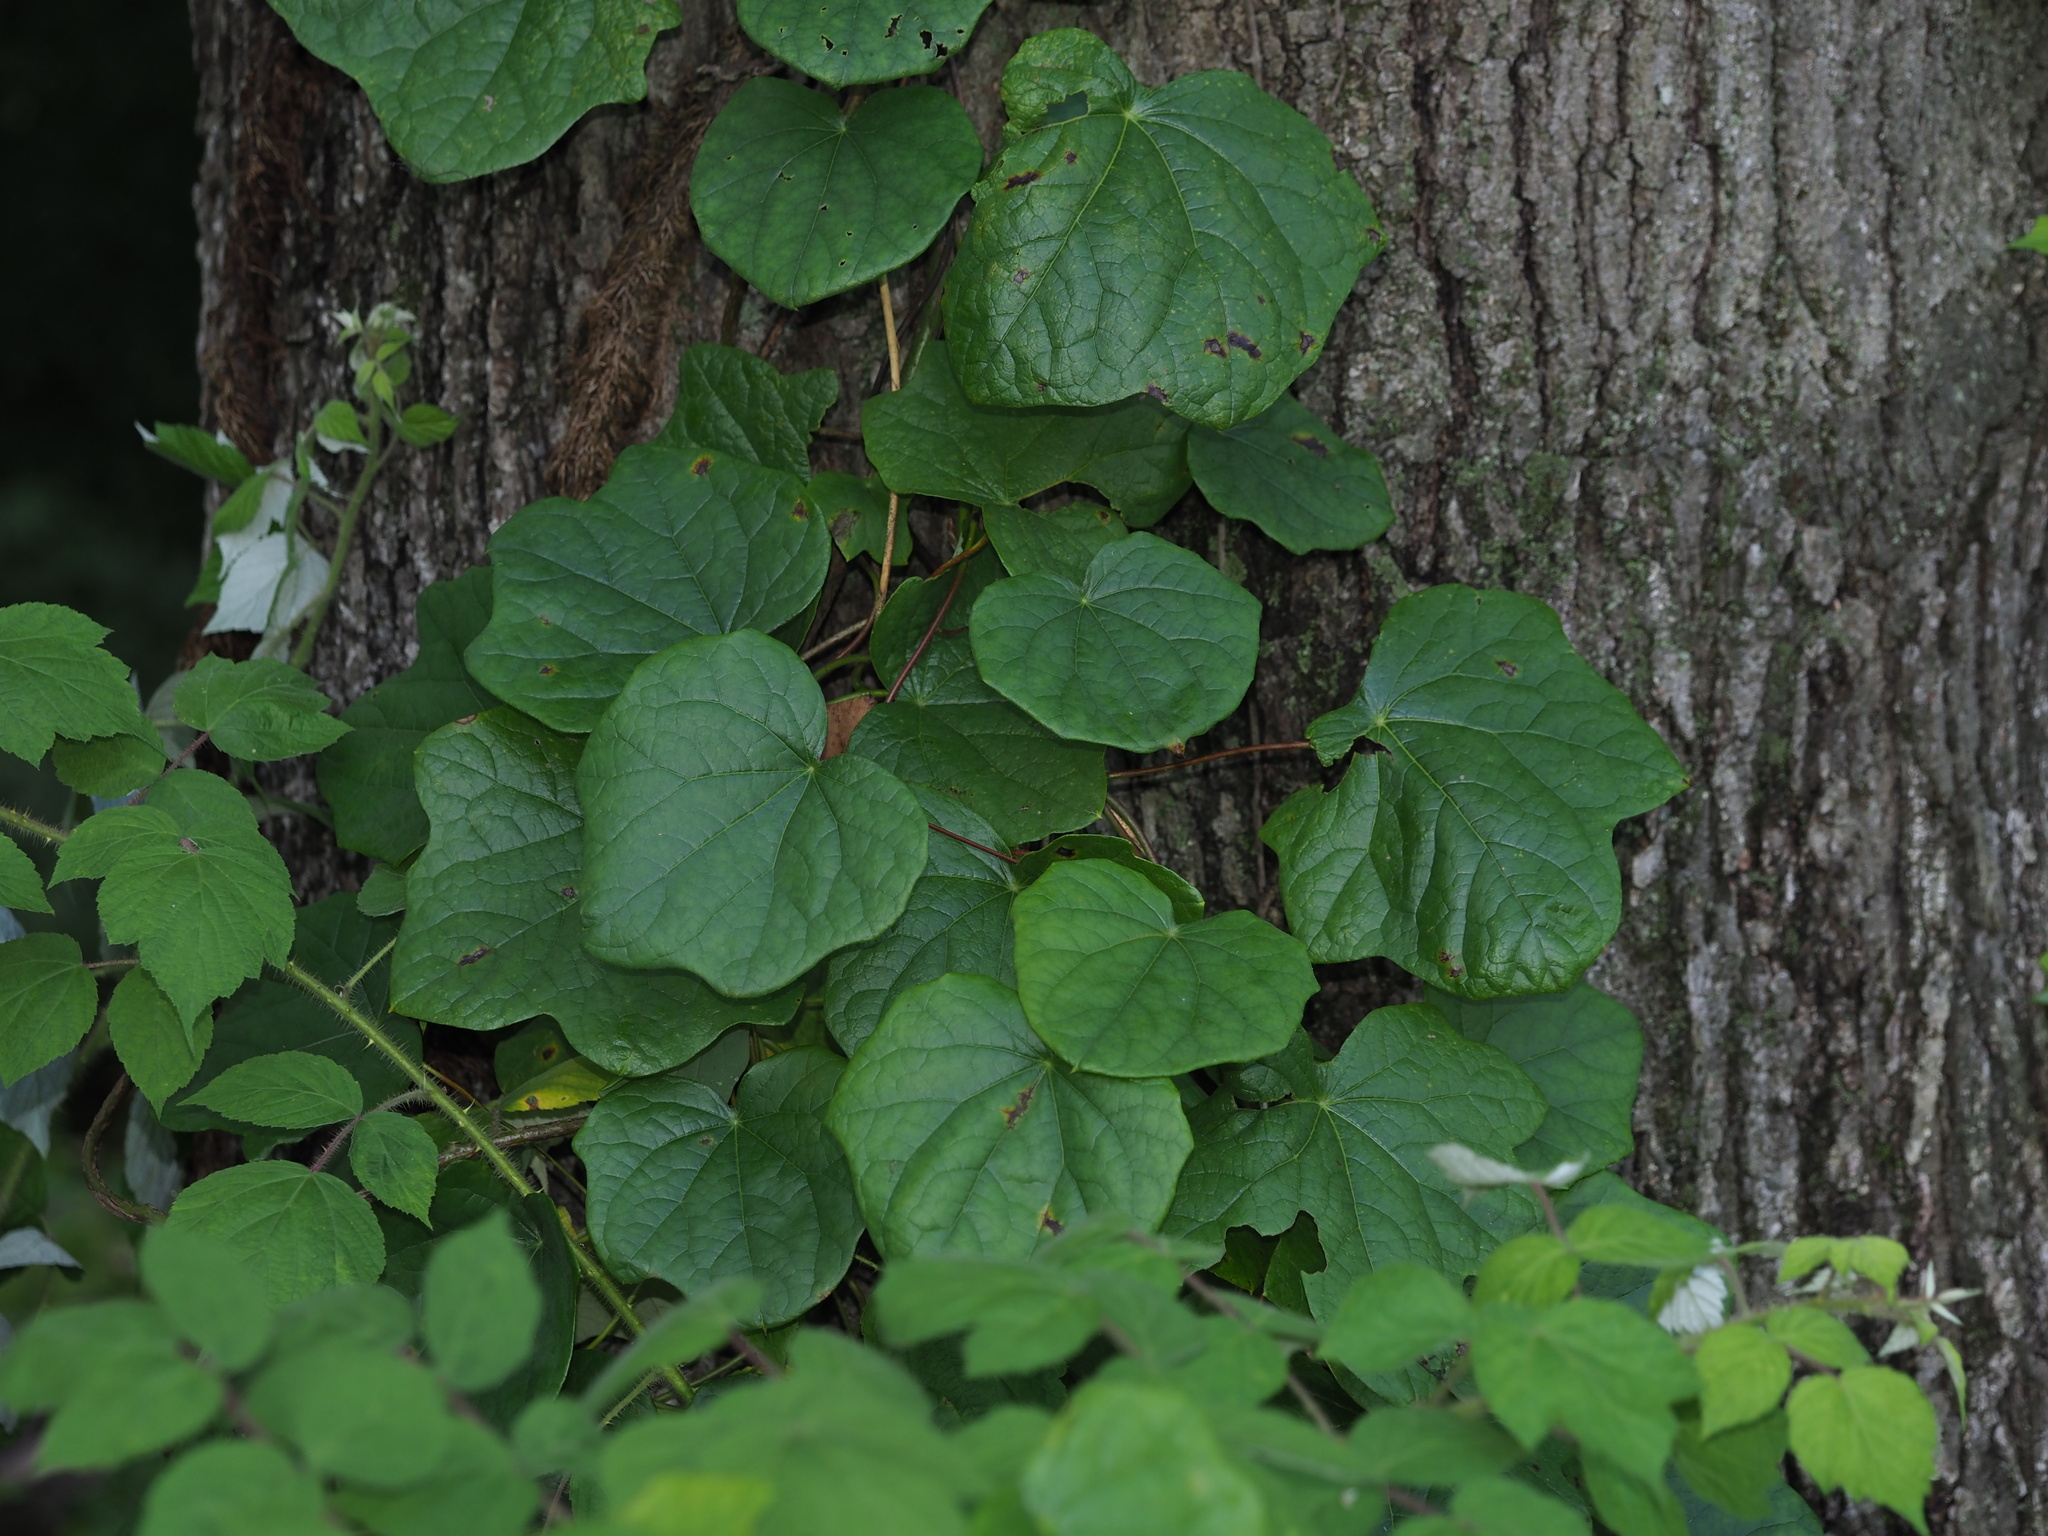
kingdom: Plantae
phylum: Tracheophyta
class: Magnoliopsida
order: Ranunculales
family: Menispermaceae
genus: Menispermum
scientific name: Menispermum canadense
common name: Moonseed
